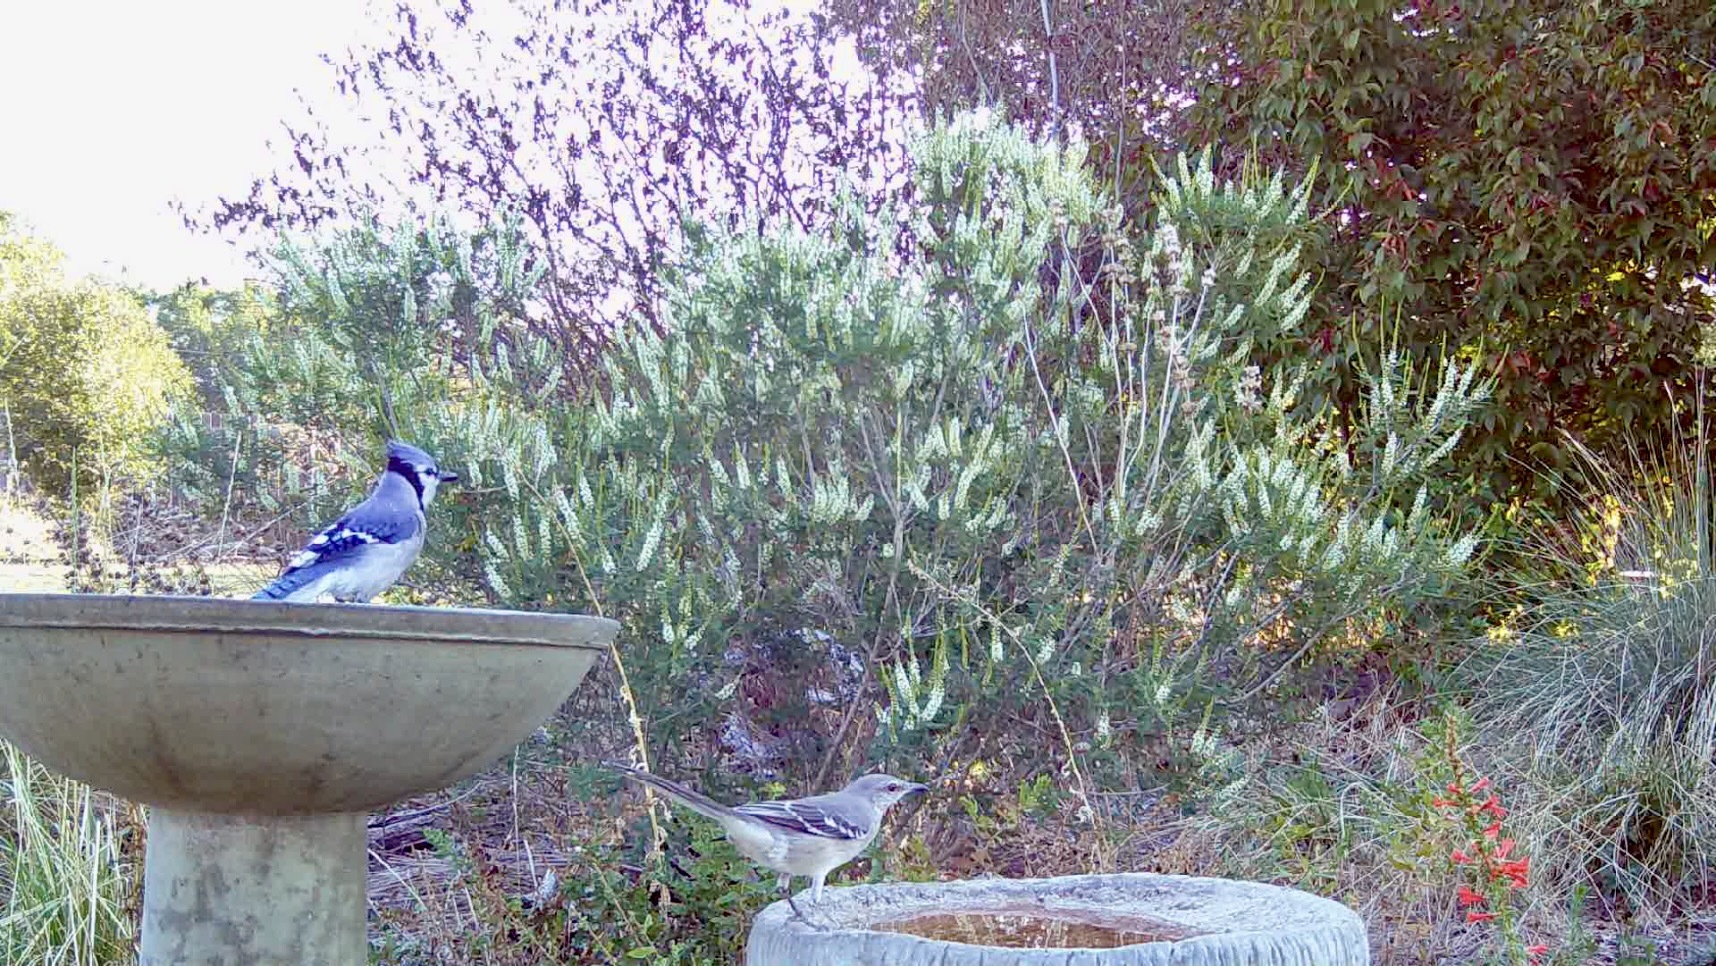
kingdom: Animalia
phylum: Chordata
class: Aves
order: Passeriformes
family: Mimidae
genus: Mimus
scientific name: Mimus polyglottos
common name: Northern mockingbird
